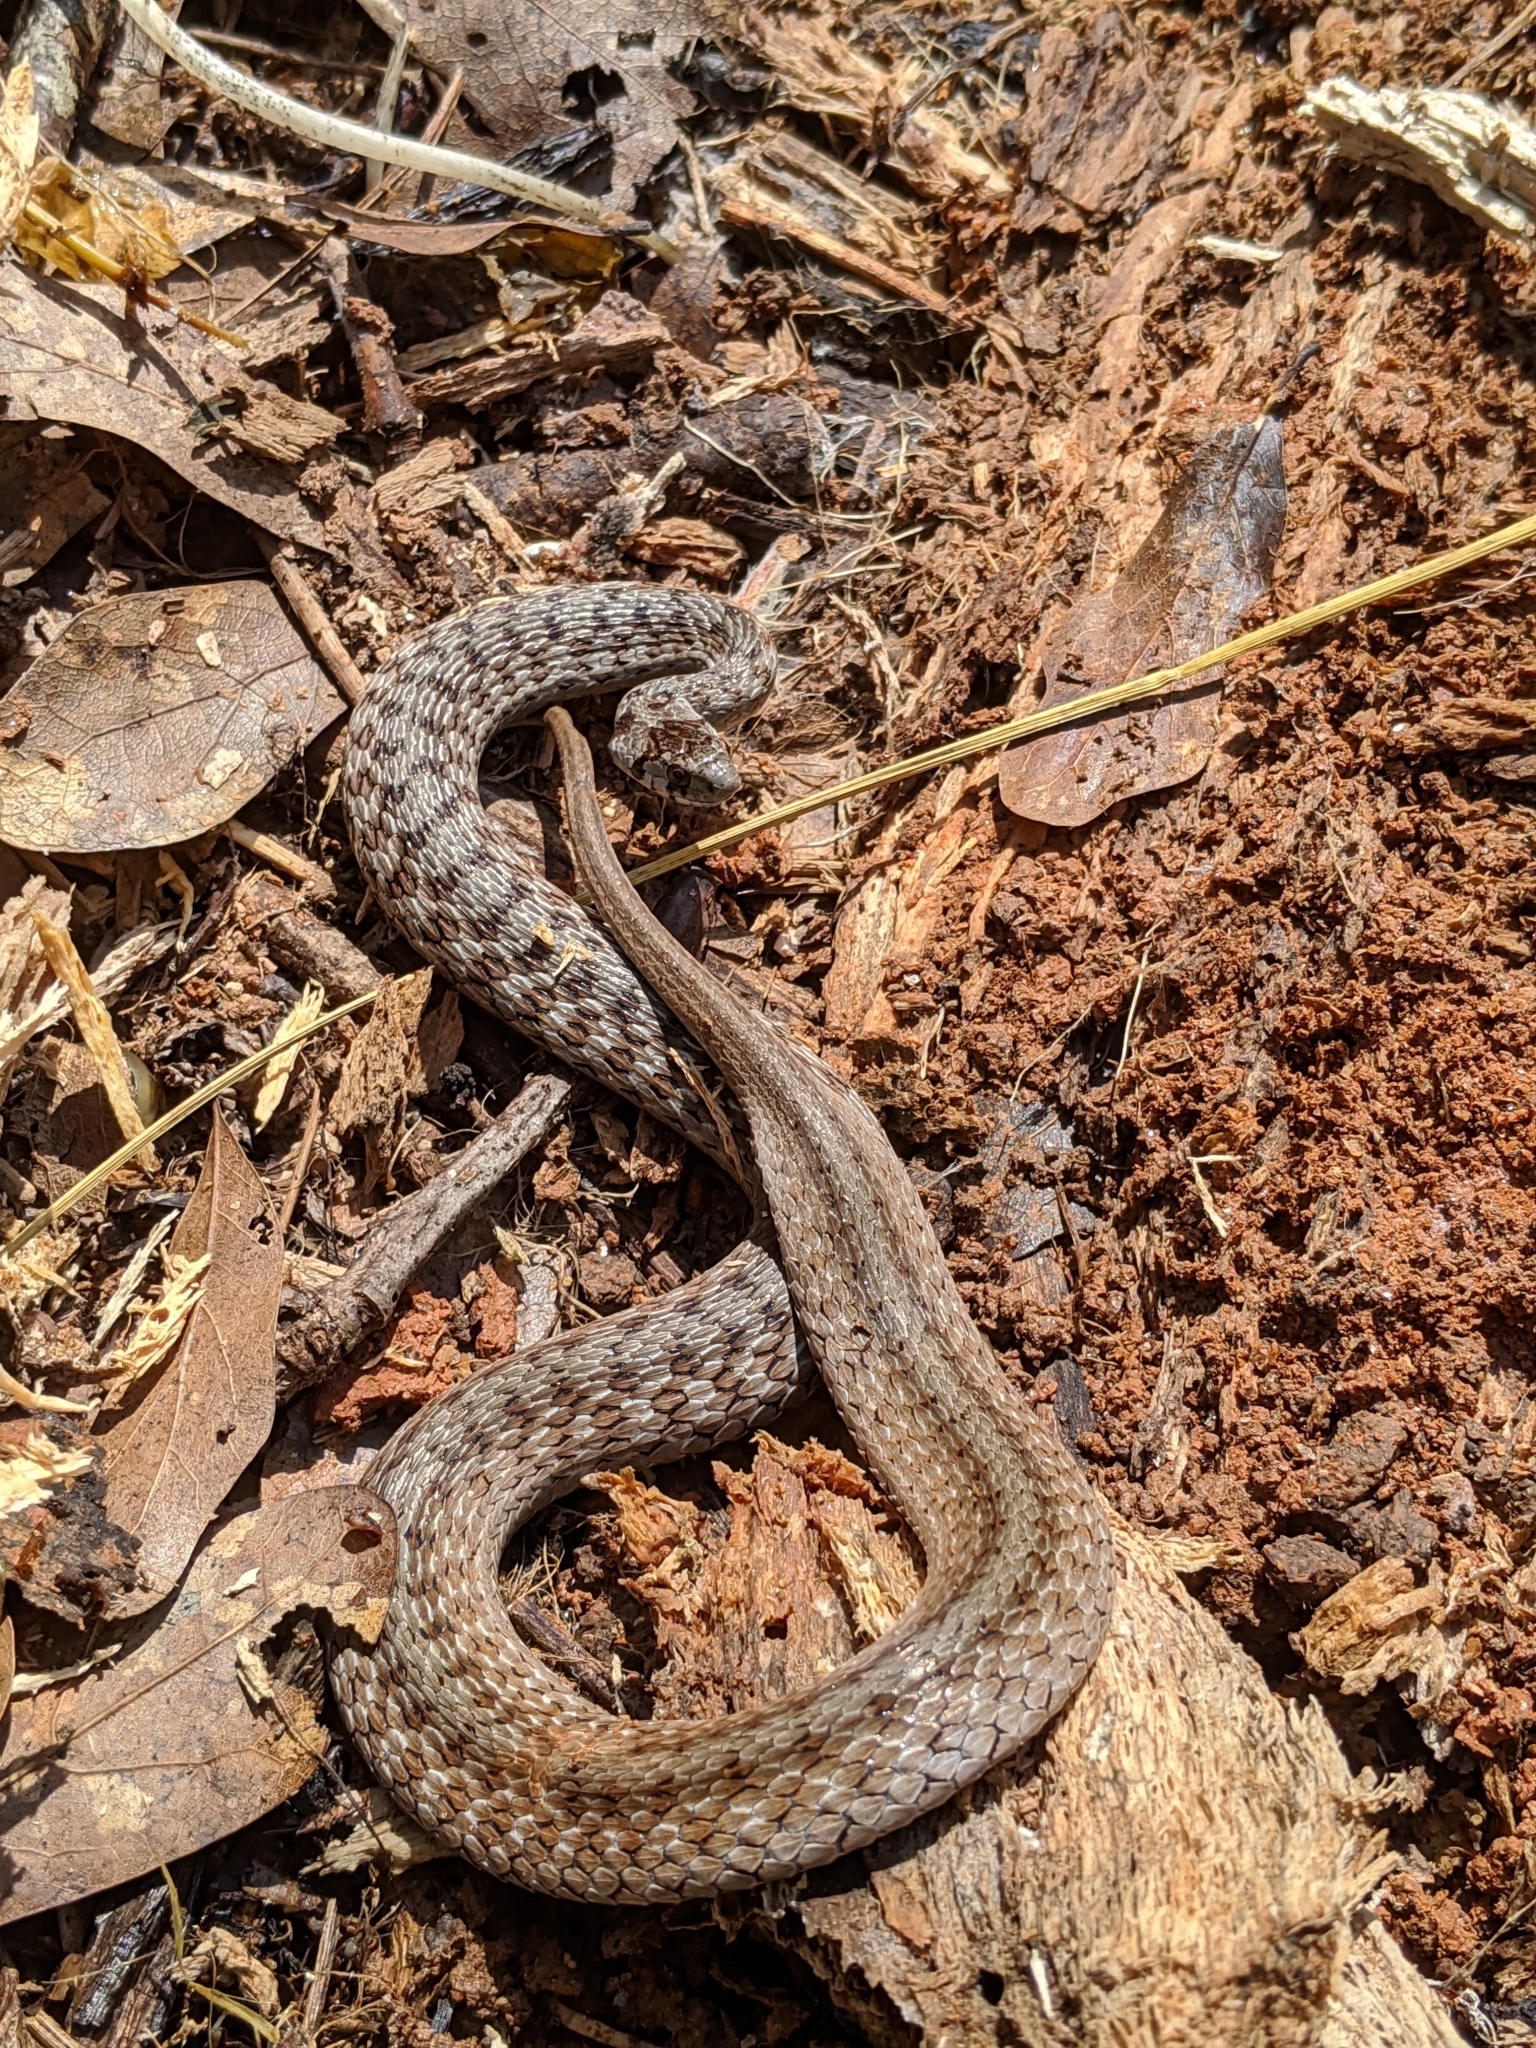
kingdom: Animalia
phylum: Chordata
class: Squamata
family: Colubridae
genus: Storeria
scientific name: Storeria dekayi
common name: (dekay’s) brown snake
